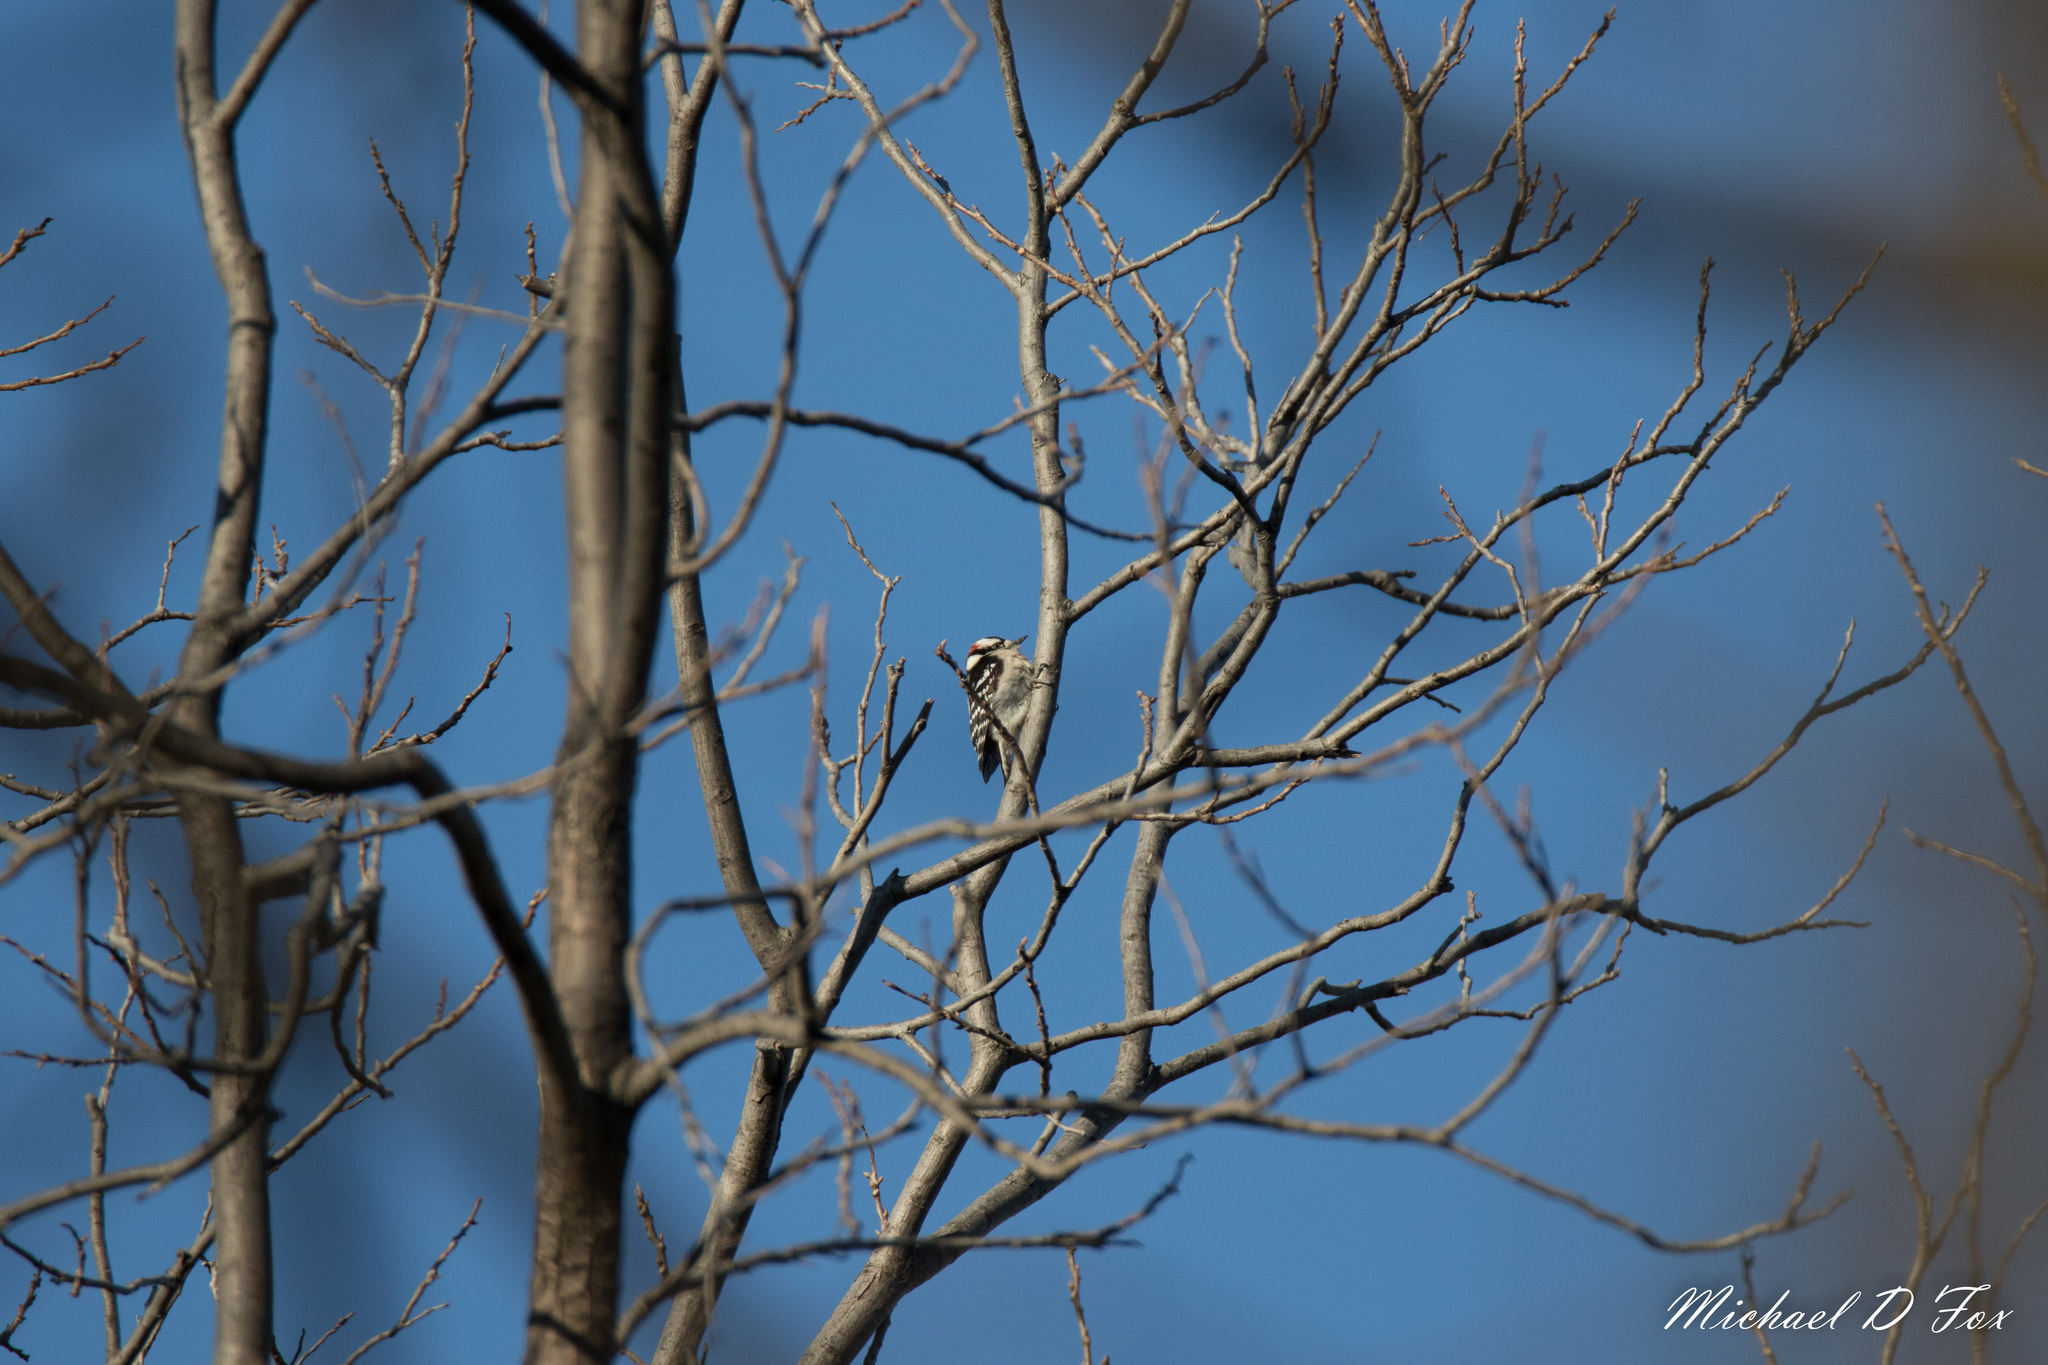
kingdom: Animalia
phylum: Chordata
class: Aves
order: Piciformes
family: Picidae
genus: Dryobates
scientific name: Dryobates pubescens
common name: Downy woodpecker
